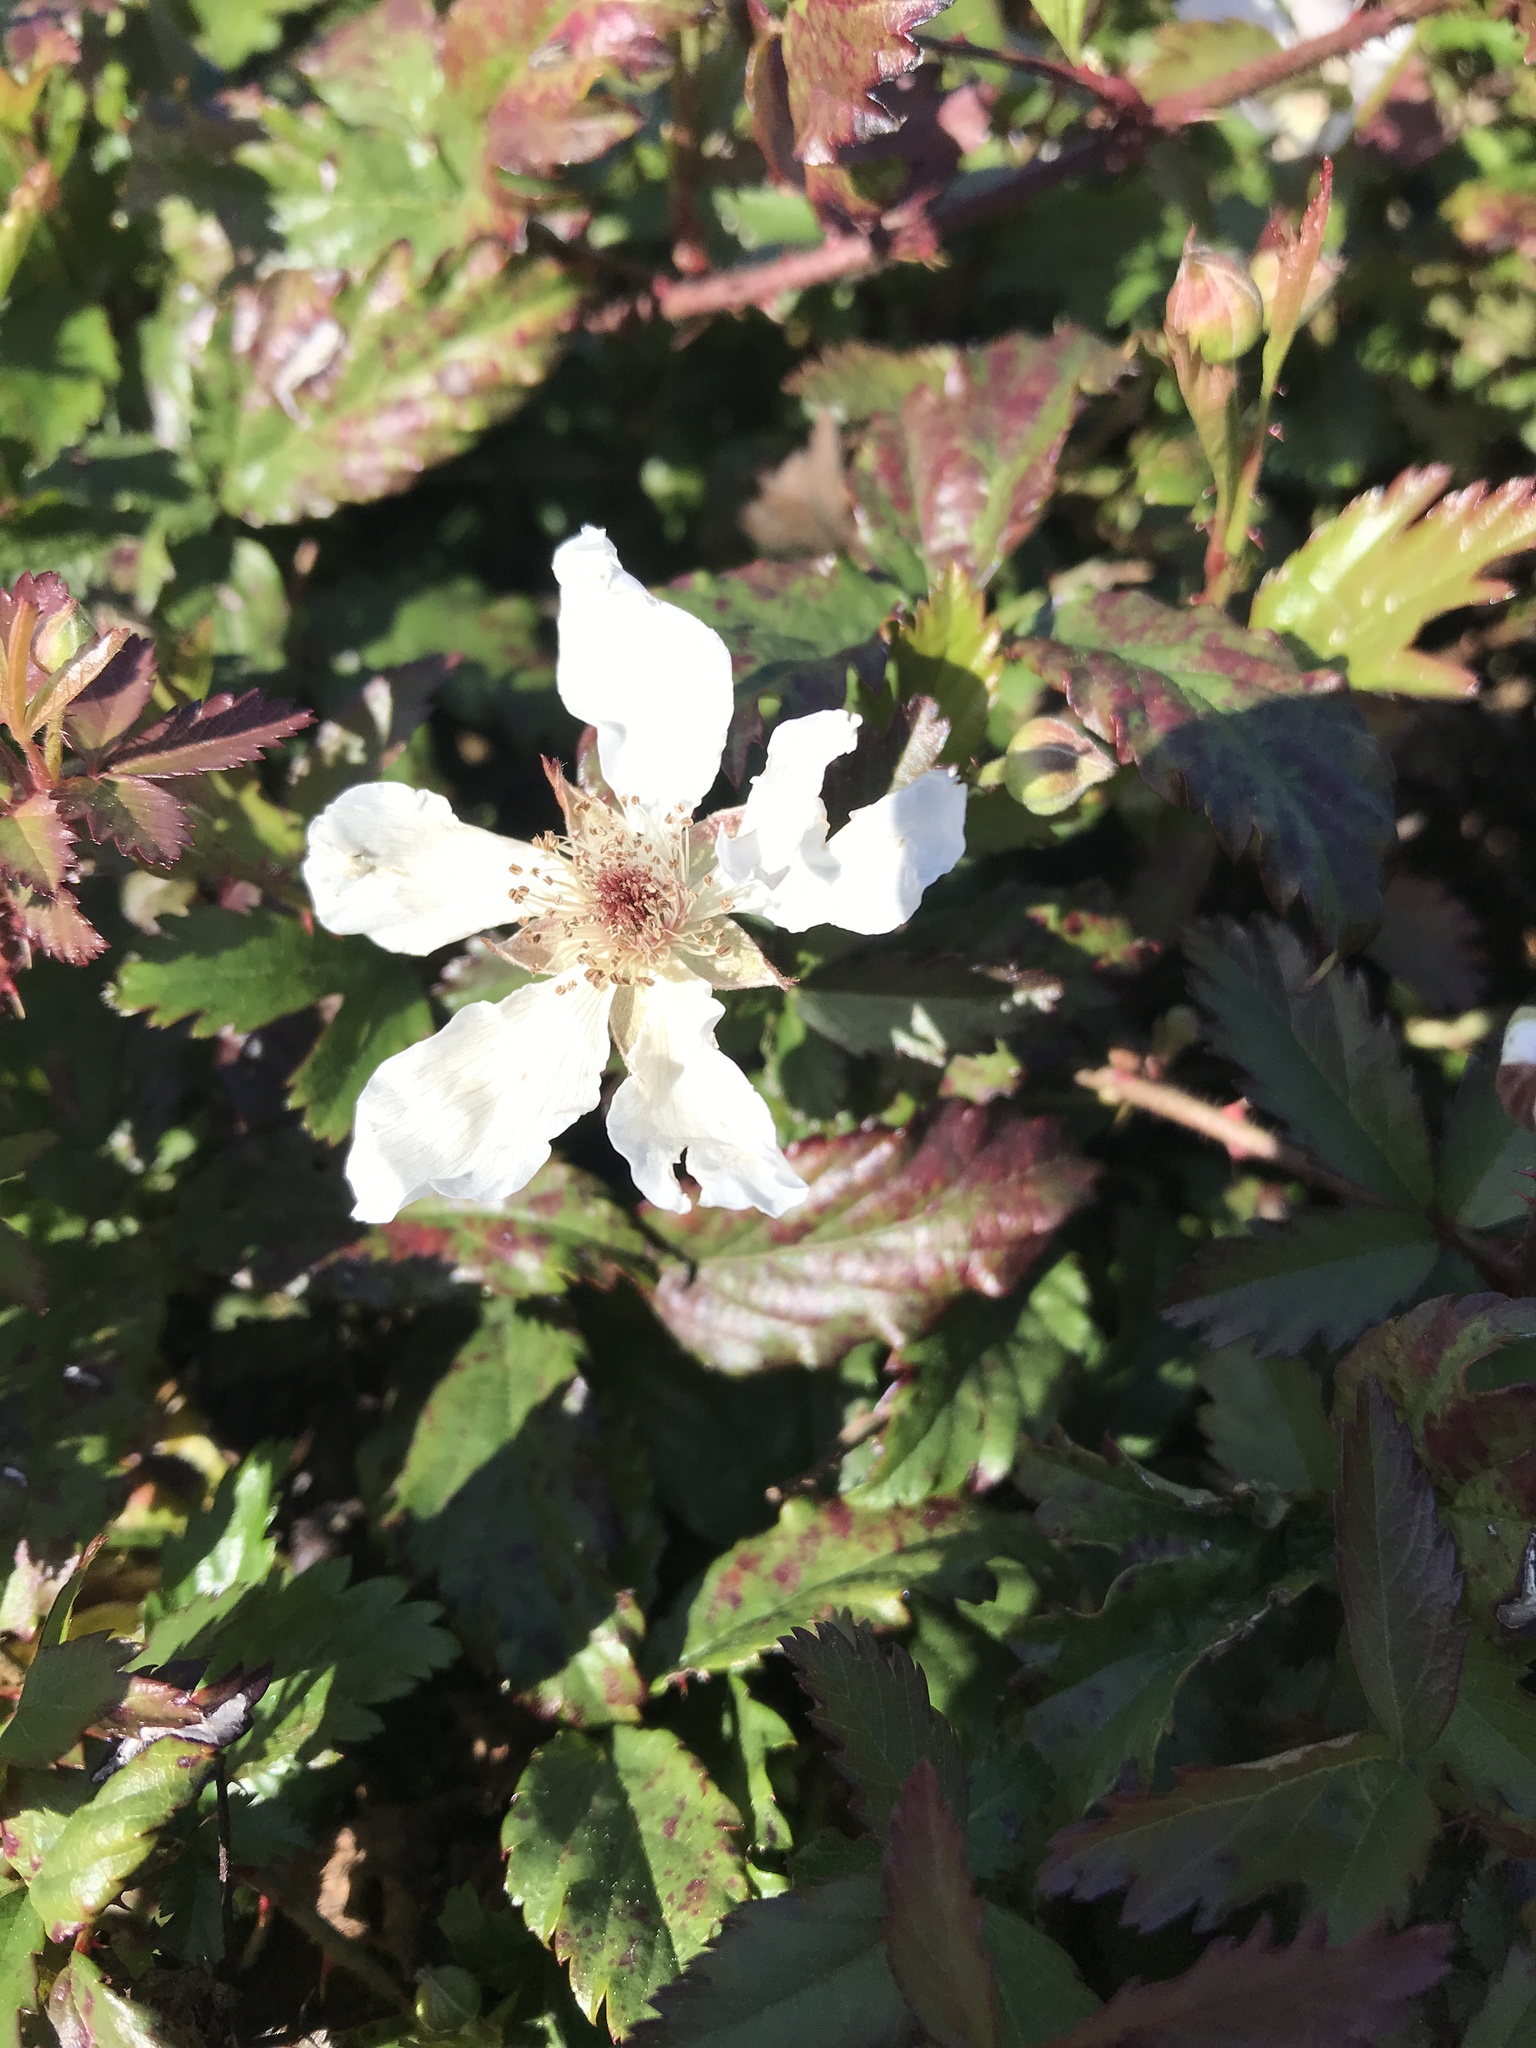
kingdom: Plantae
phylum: Tracheophyta
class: Magnoliopsida
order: Rosales
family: Rosaceae
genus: Rubus
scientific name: Rubus trivialis
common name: Southern dewberry
